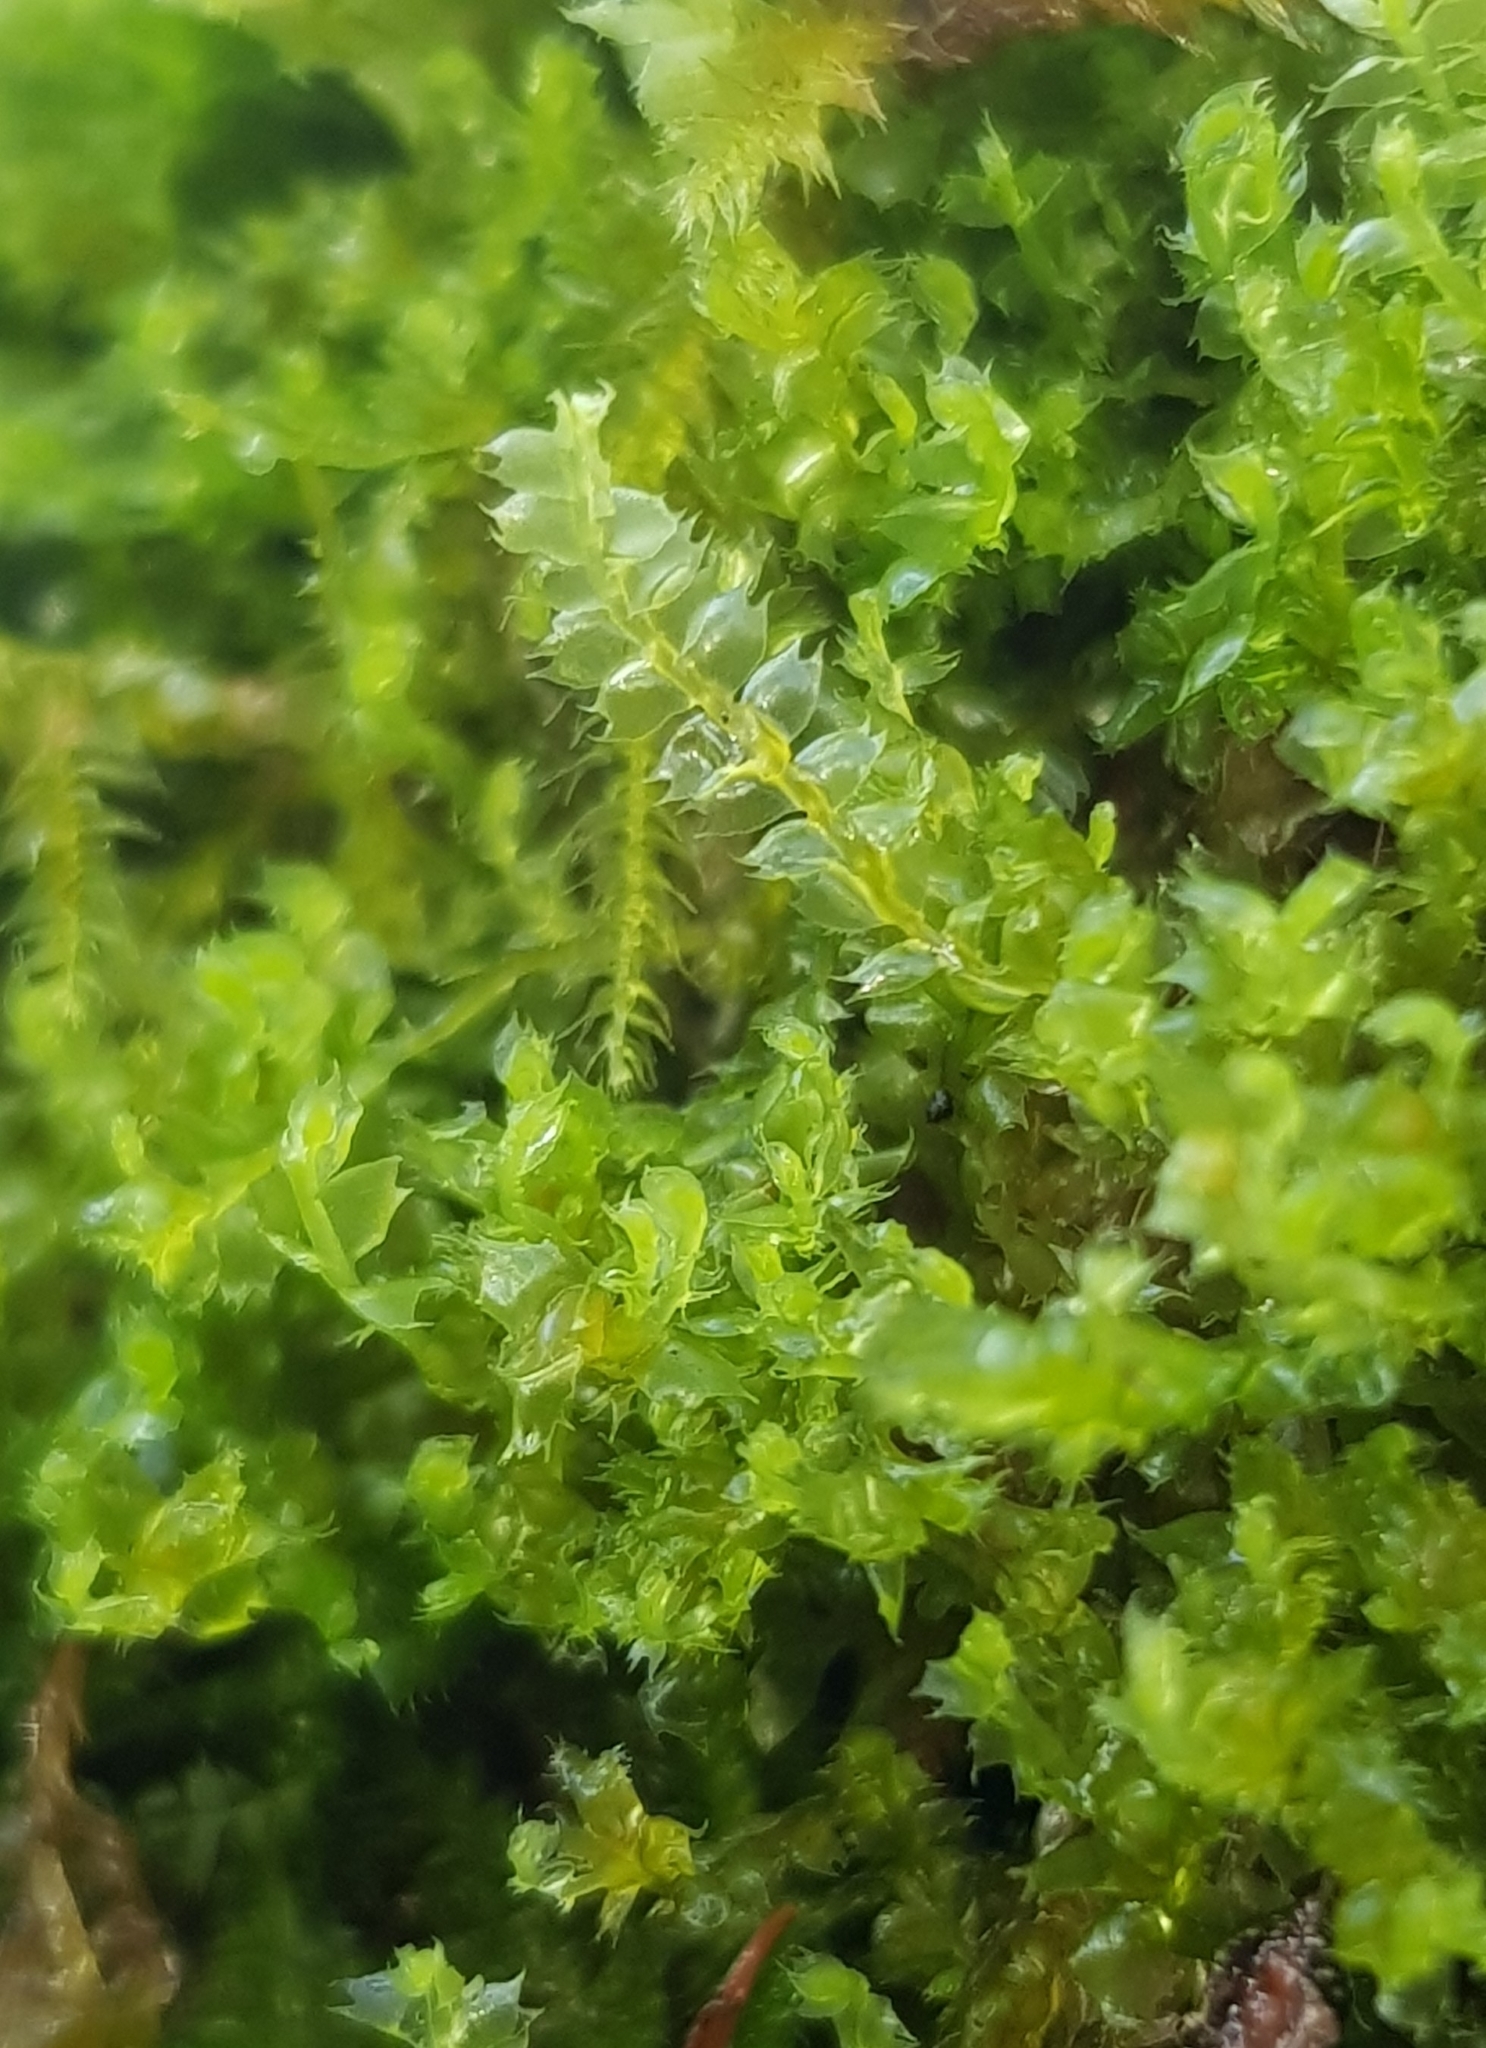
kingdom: Plantae
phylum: Marchantiophyta
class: Jungermanniopsida
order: Jungermanniales
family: Lophocoleaceae
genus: Lophocolea
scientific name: Lophocolea bidentata
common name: Bifid crestwort
